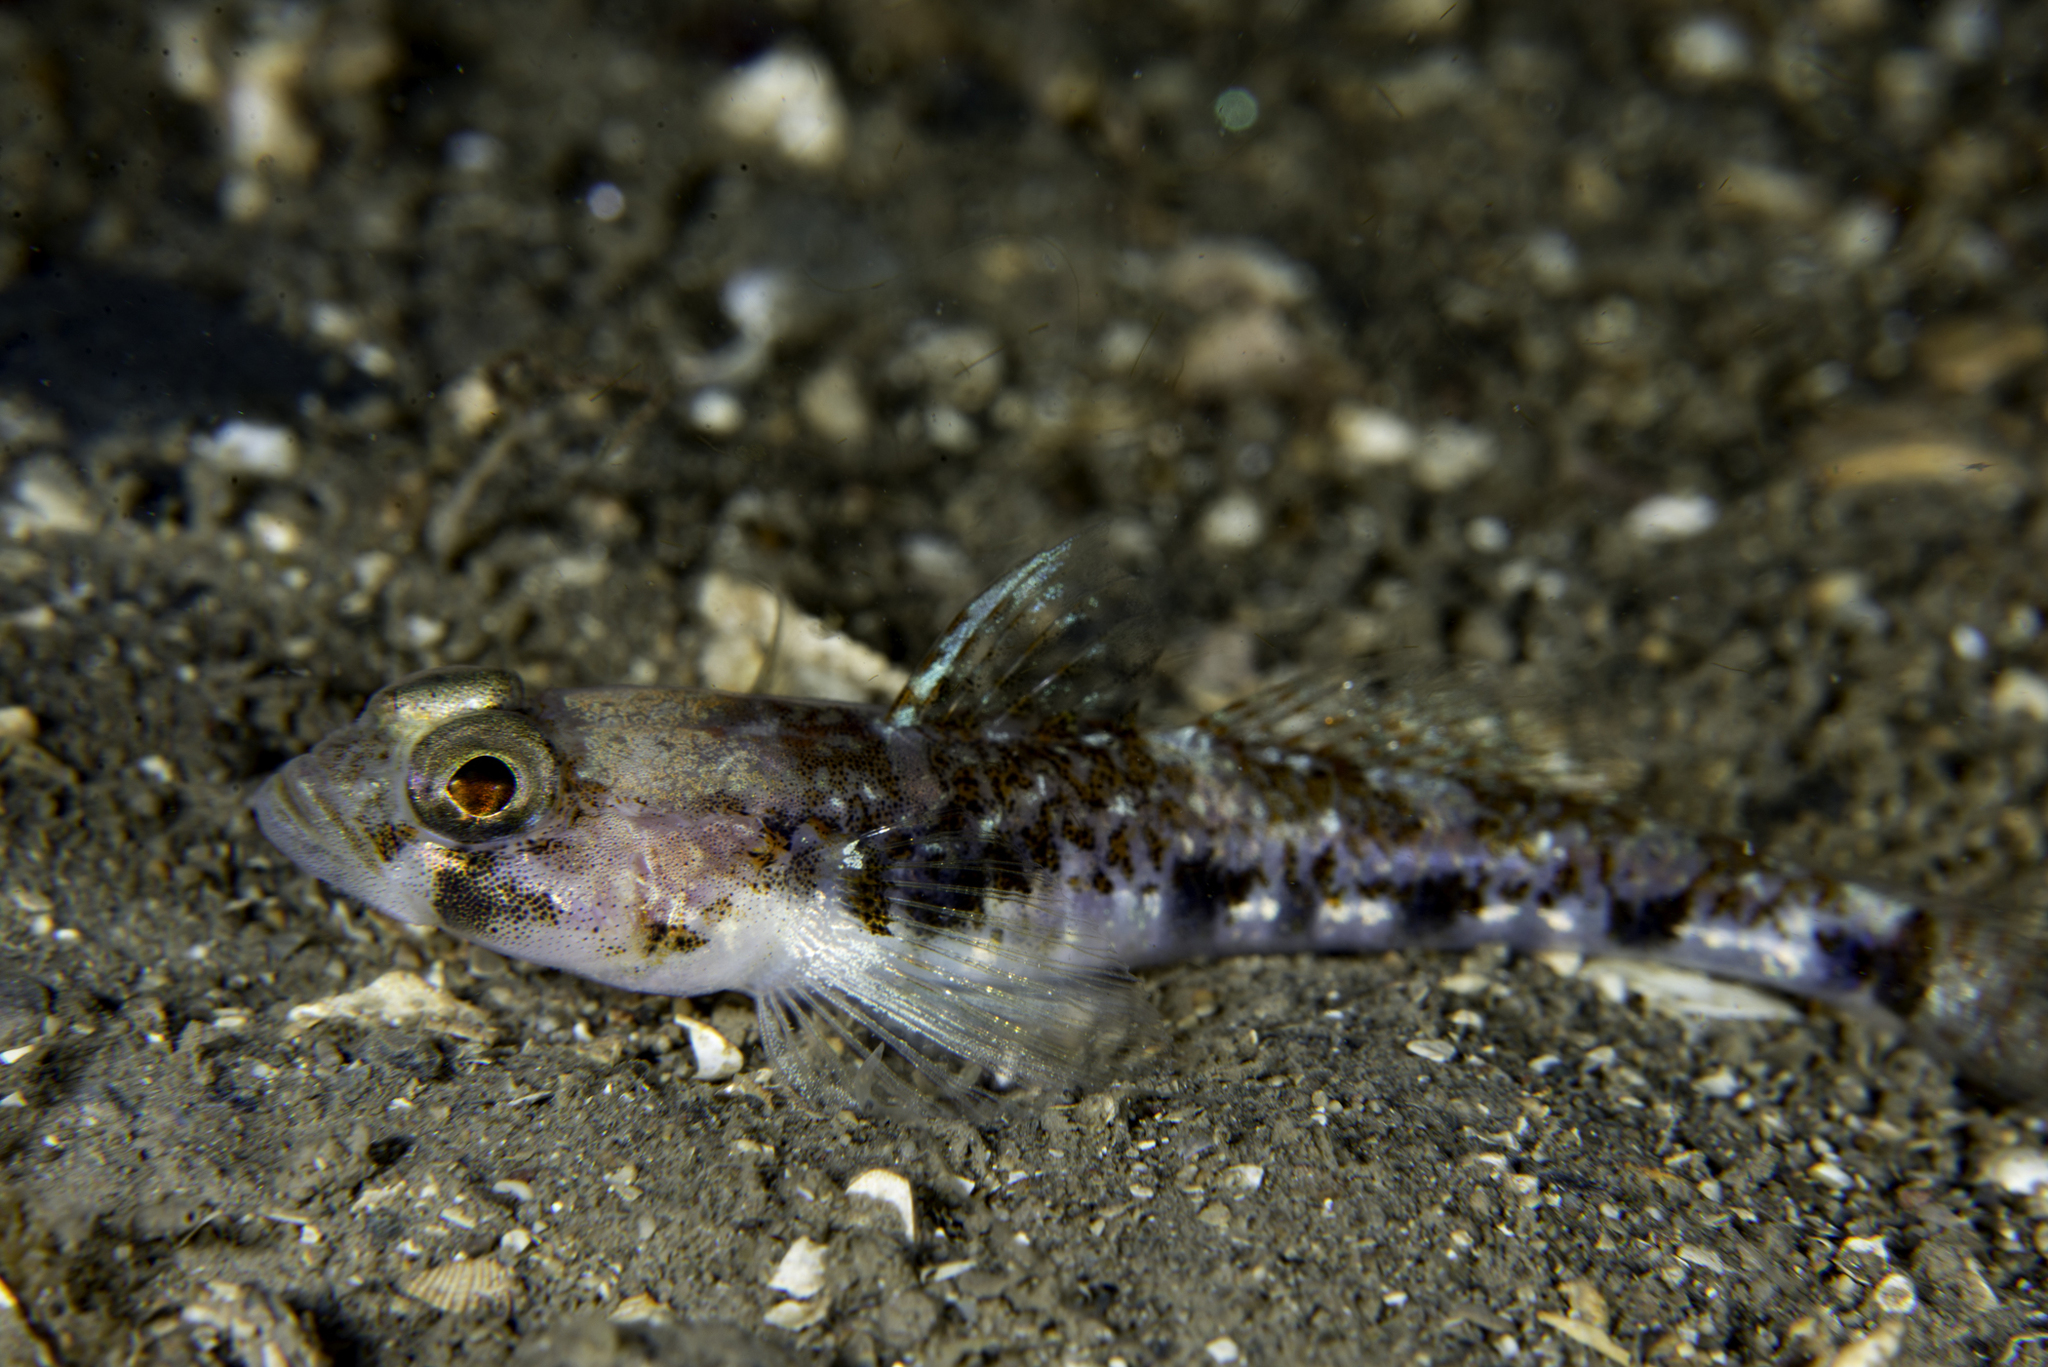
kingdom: Animalia
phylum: Chordata
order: Perciformes
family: Gobiidae
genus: Buenia
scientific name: Buenia jeffreysii
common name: Jeffrey's goby
